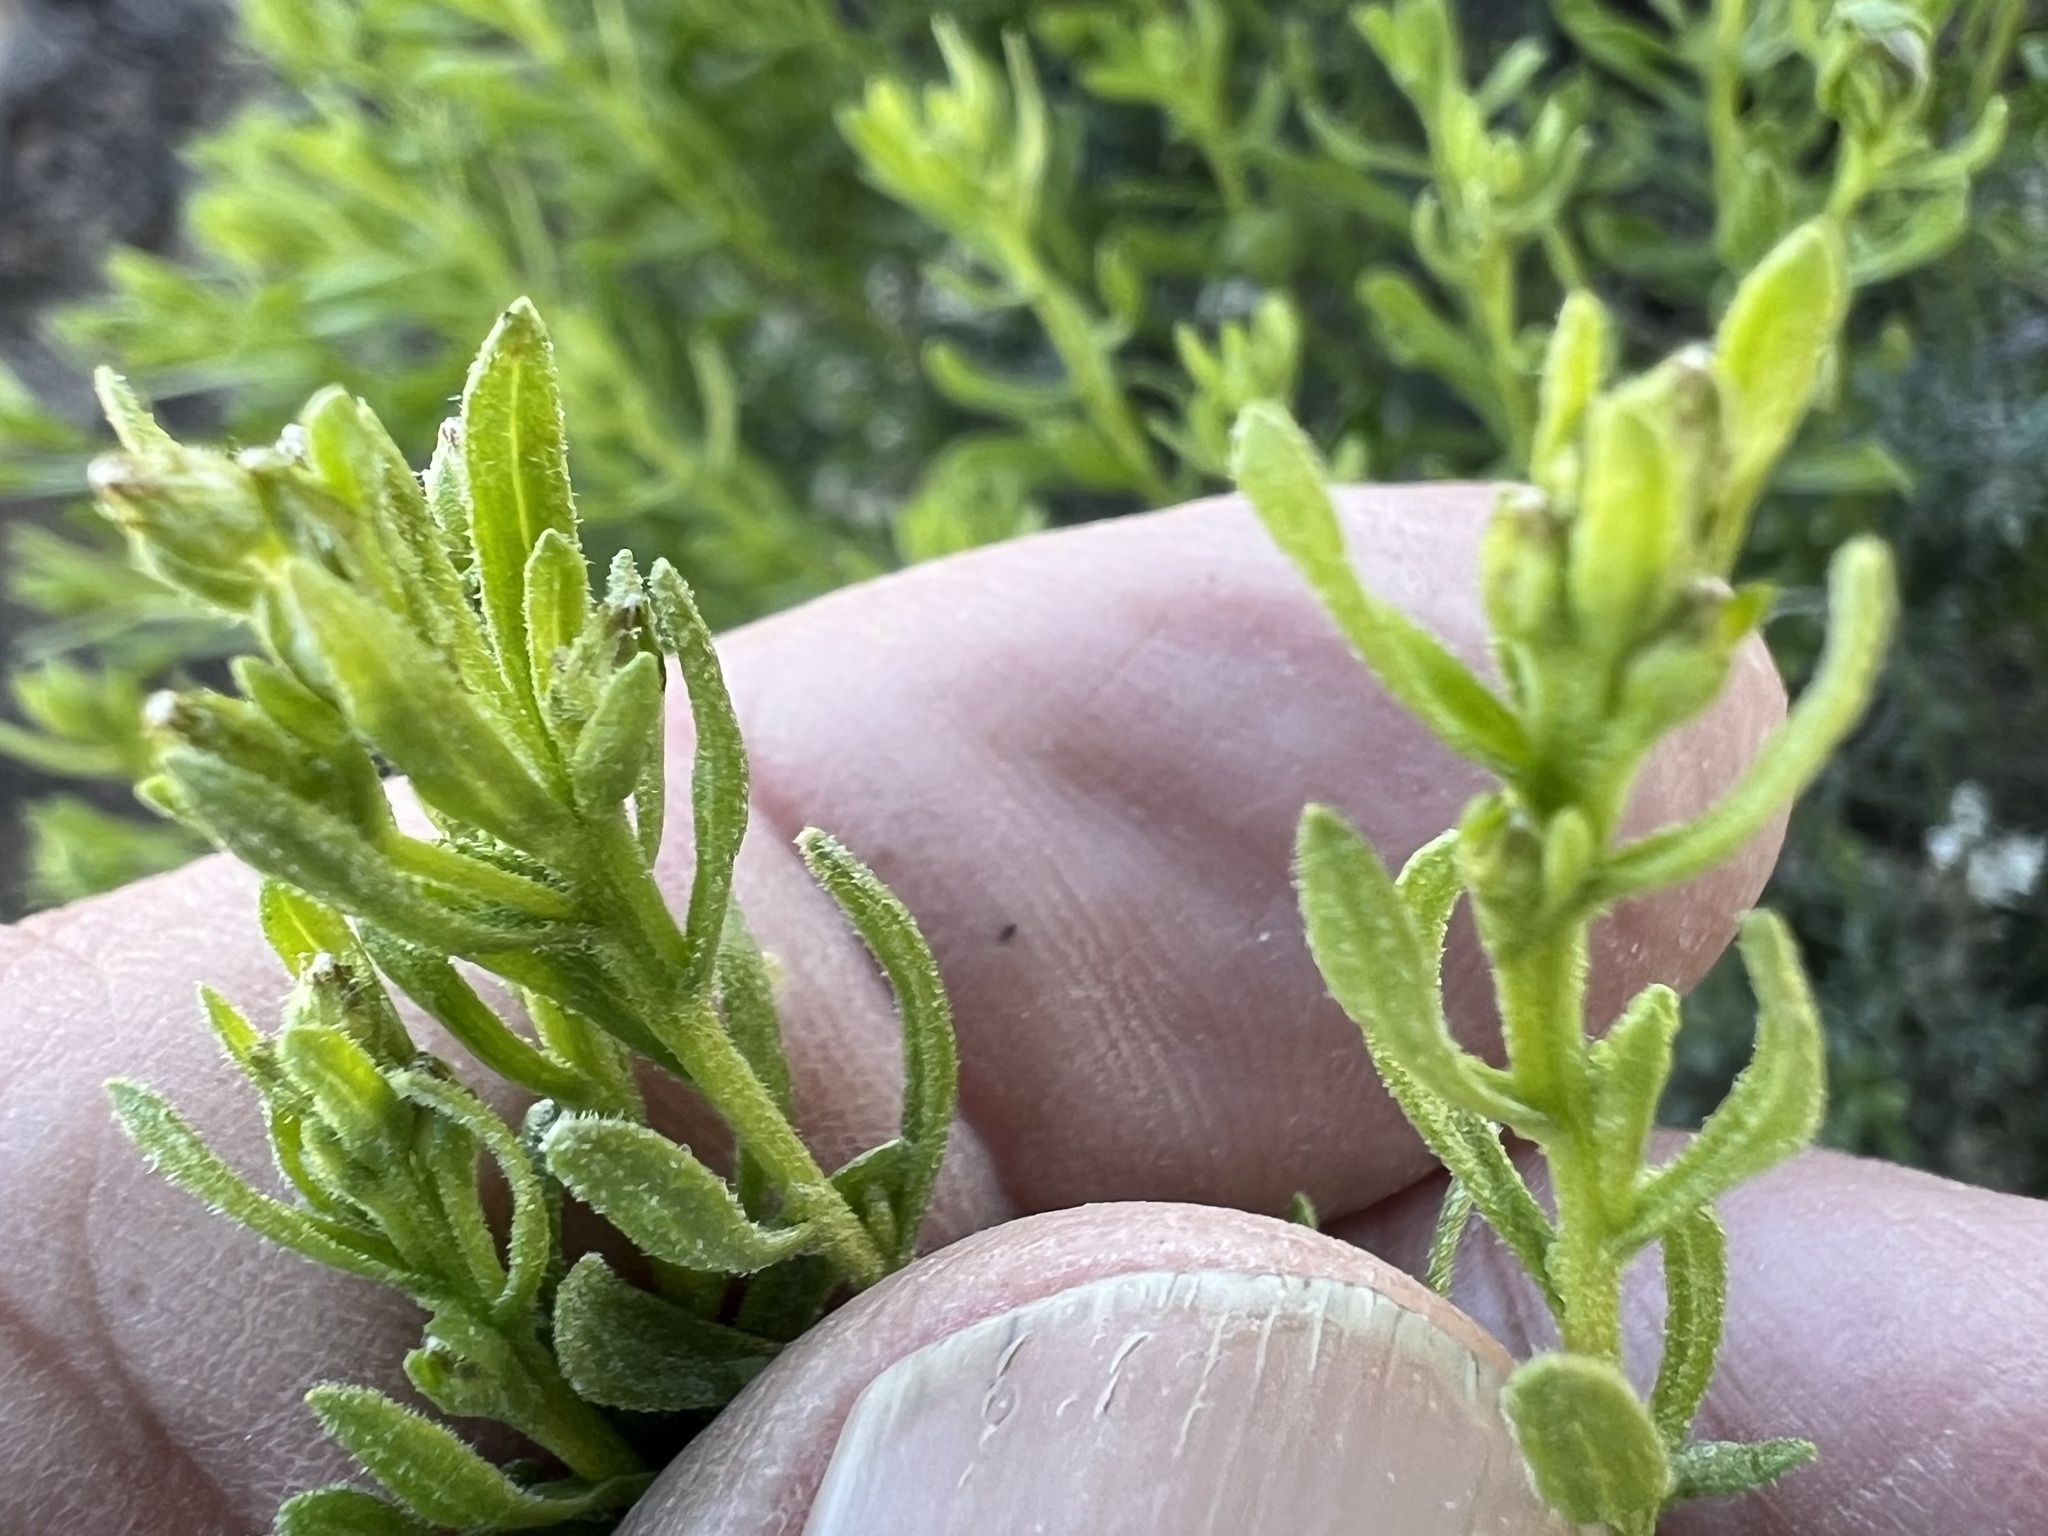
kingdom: Plantae
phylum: Tracheophyta
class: Magnoliopsida
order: Asterales
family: Asteraceae
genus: Ericameria
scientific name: Ericameria cooperi
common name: Cooper's goldenbush
